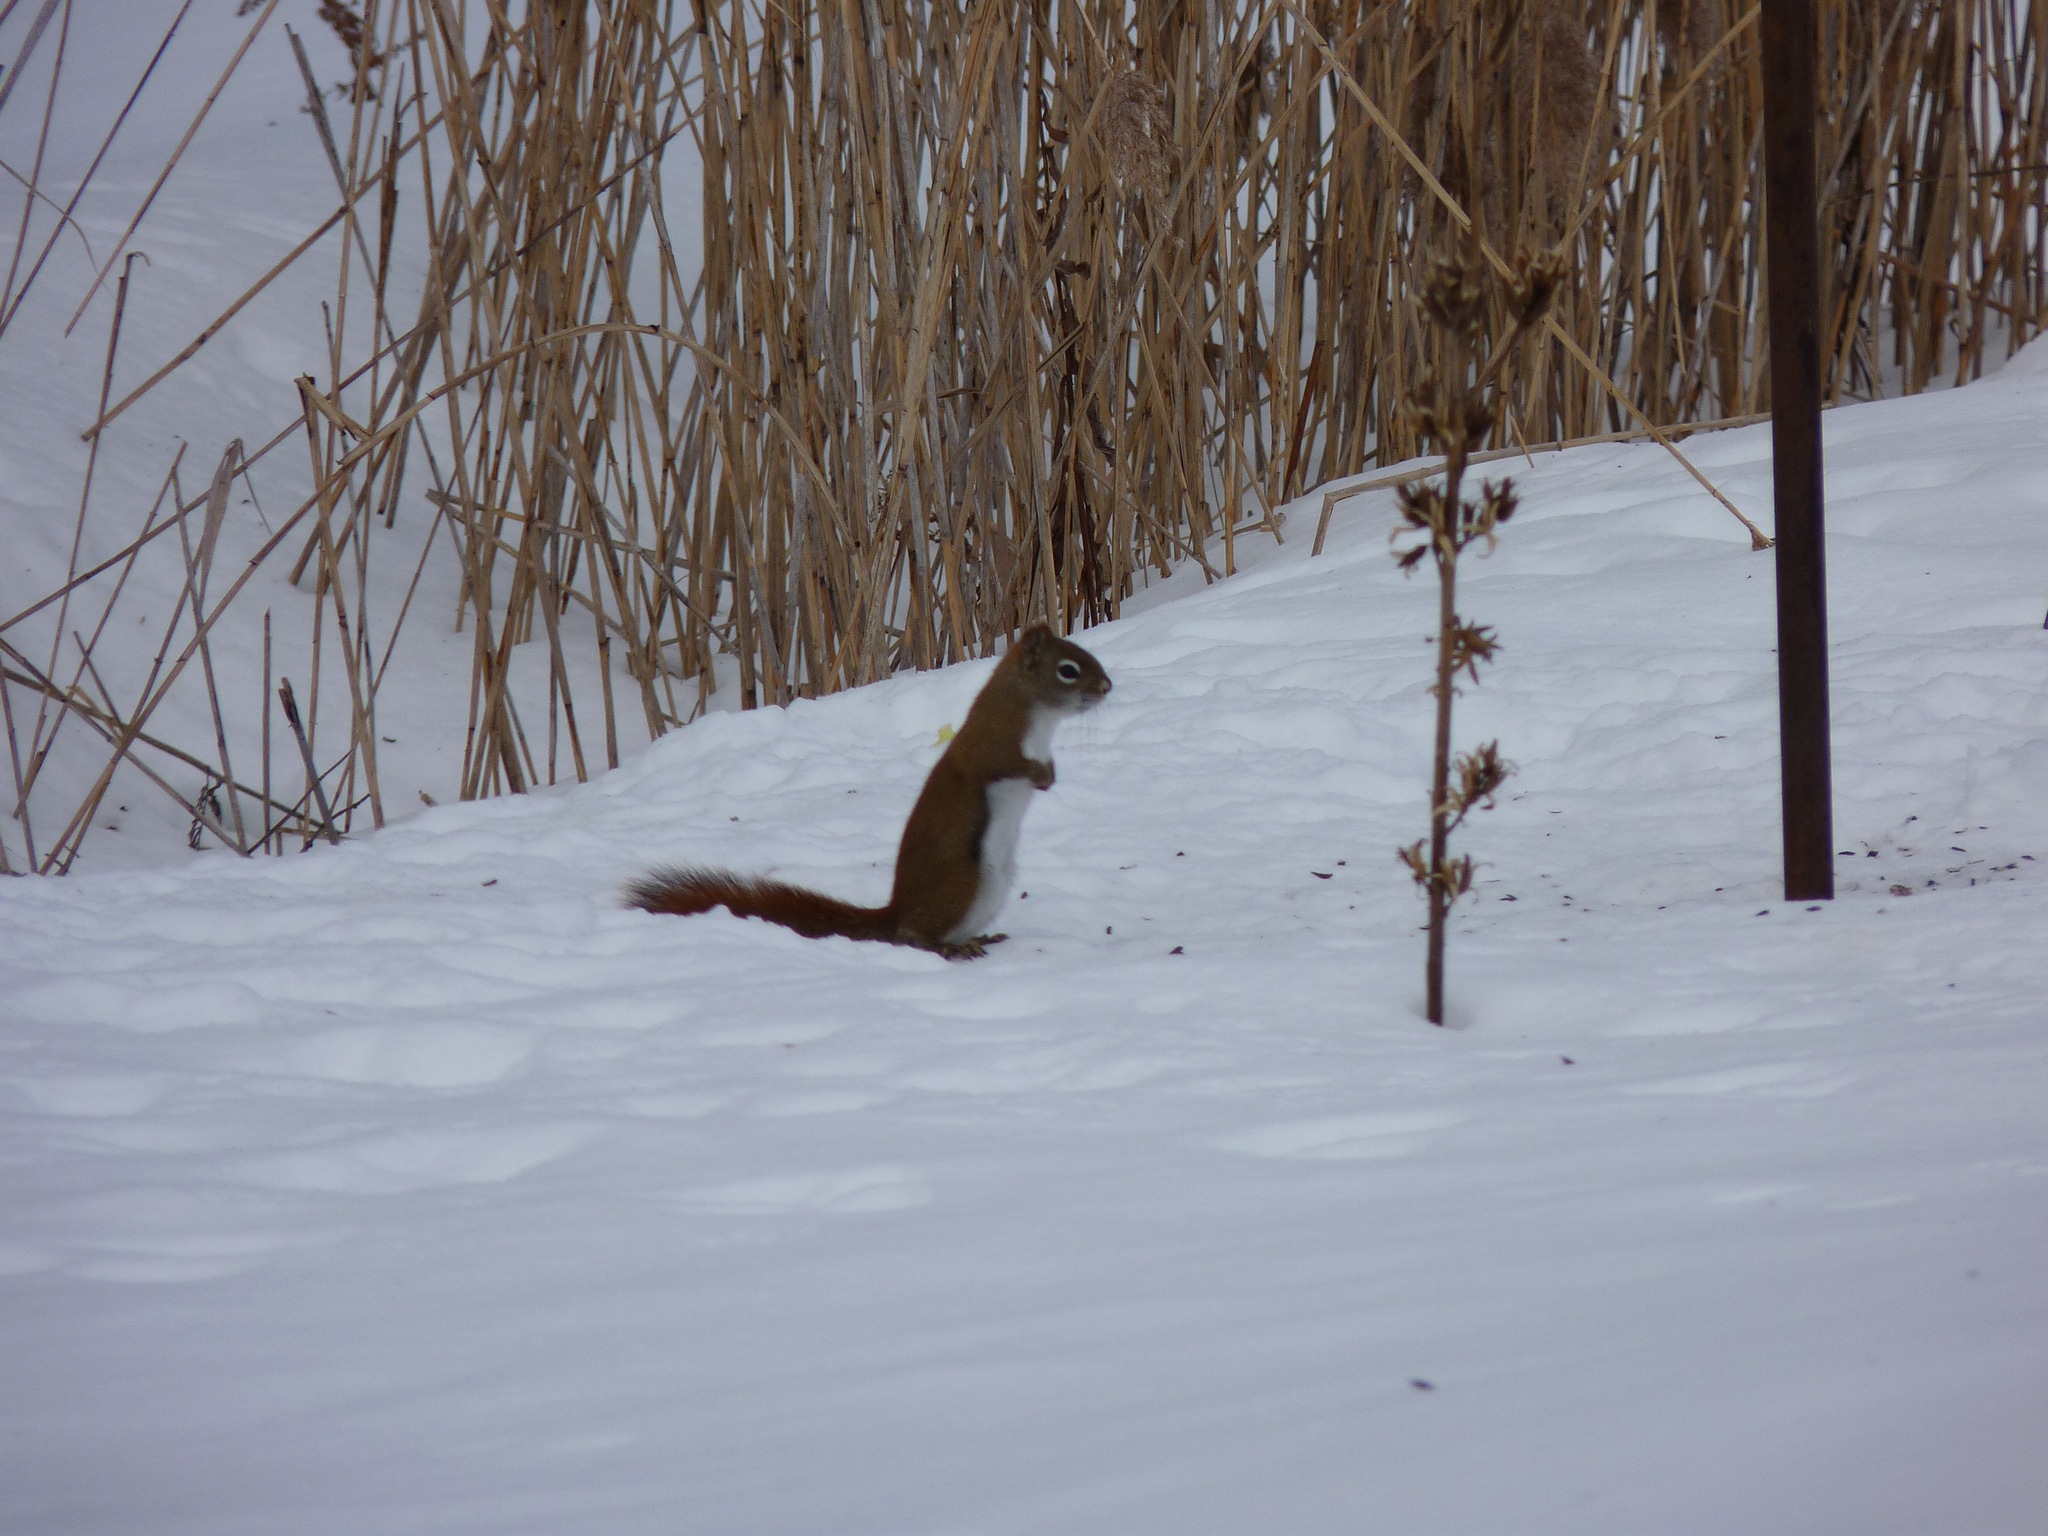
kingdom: Animalia
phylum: Chordata
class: Mammalia
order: Rodentia
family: Sciuridae
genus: Tamiasciurus
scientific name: Tamiasciurus hudsonicus
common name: Red squirrel
